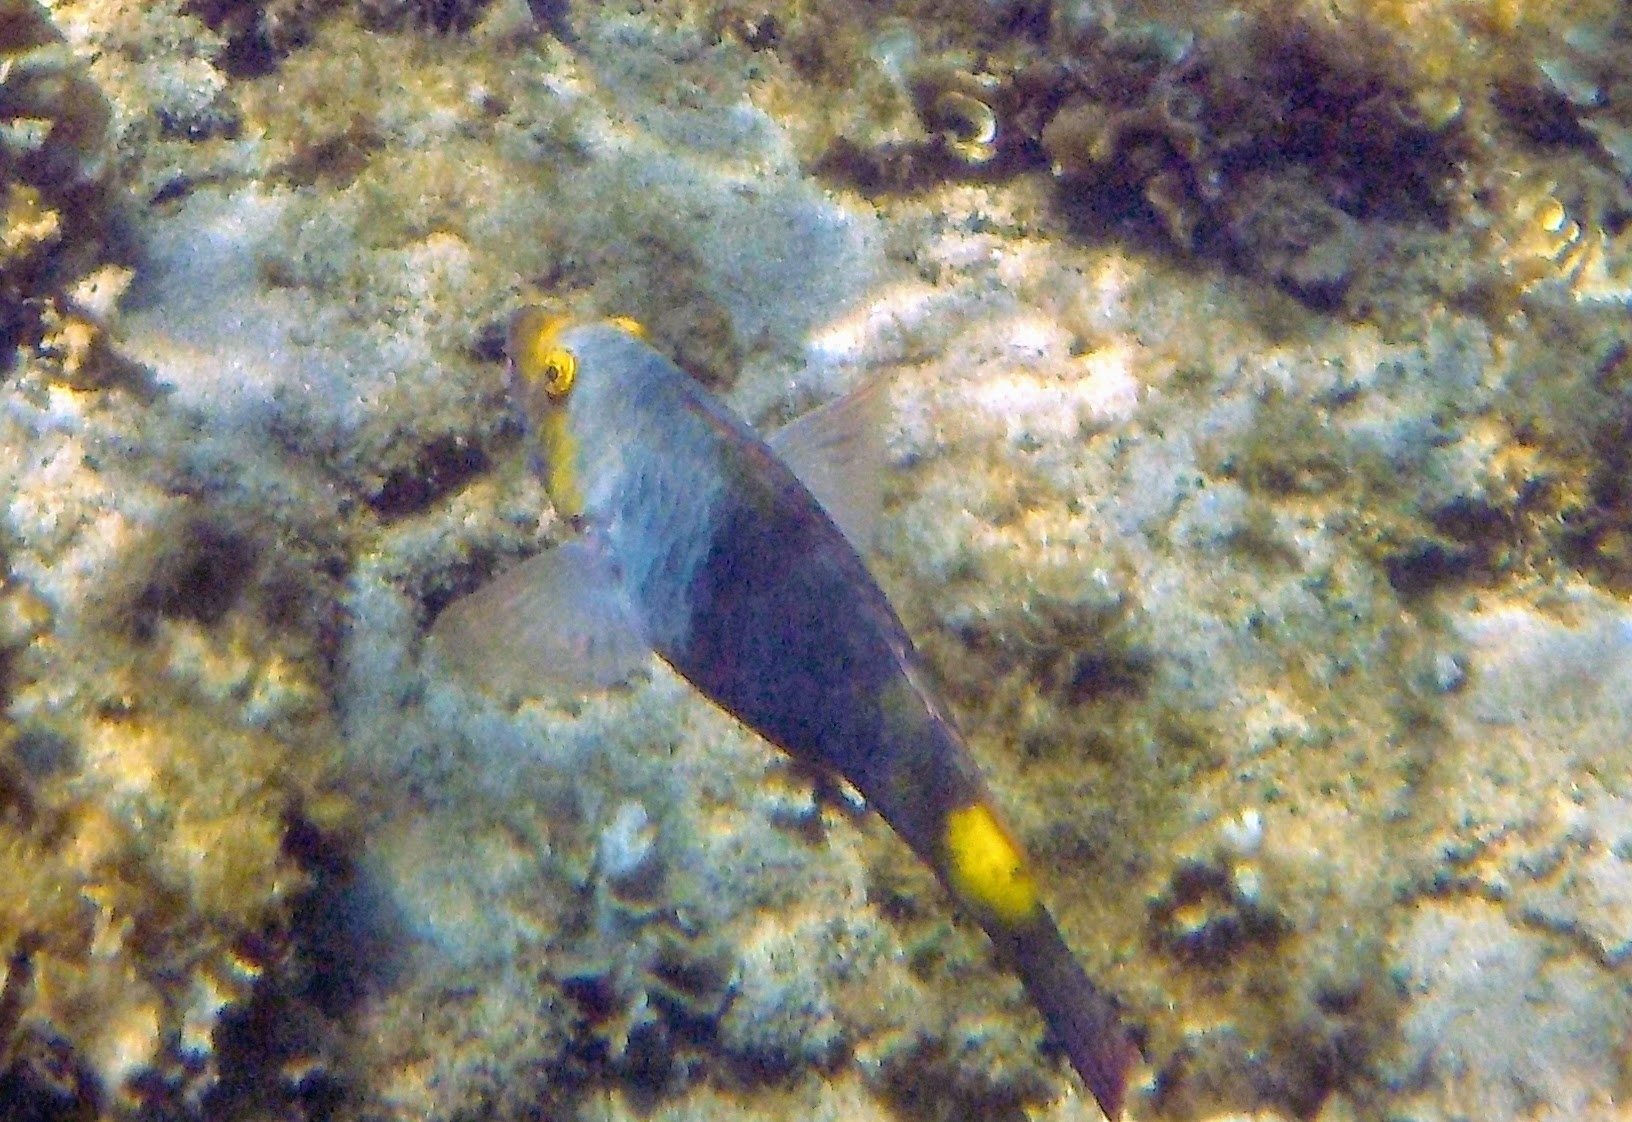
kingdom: Animalia
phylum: Chordata
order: Perciformes
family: Scaridae
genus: Sparisoma
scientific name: Sparisoma cretense
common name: Parrotfish
